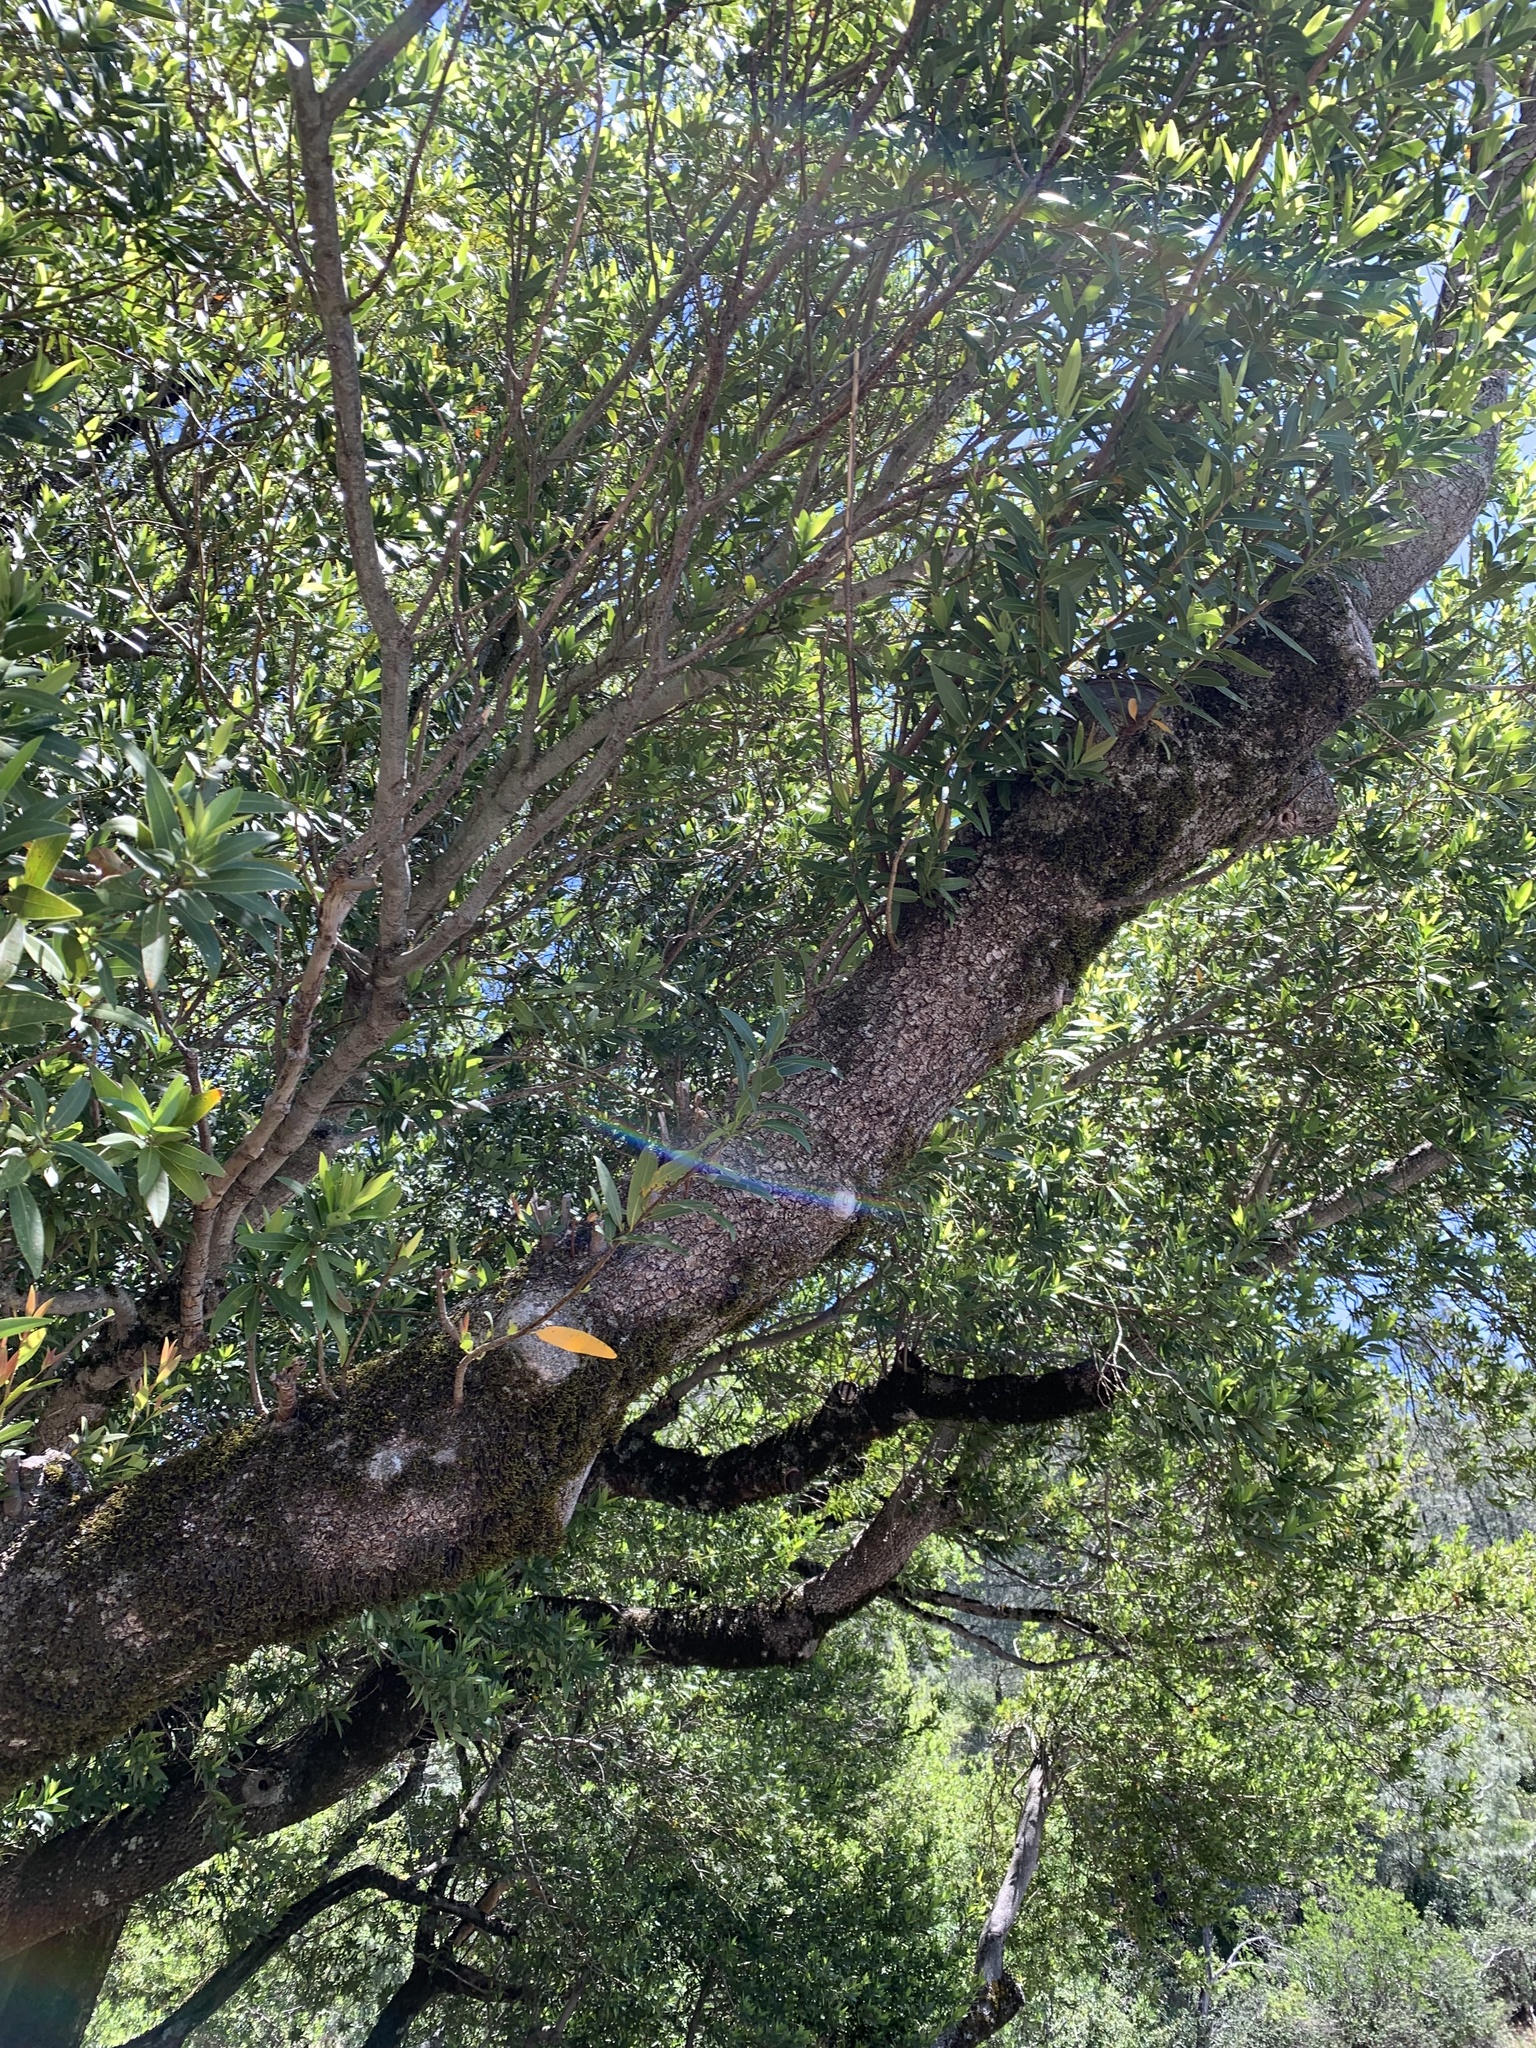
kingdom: Plantae
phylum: Tracheophyta
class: Magnoliopsida
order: Laurales
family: Lauraceae
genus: Umbellularia
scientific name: Umbellularia californica
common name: California bay
